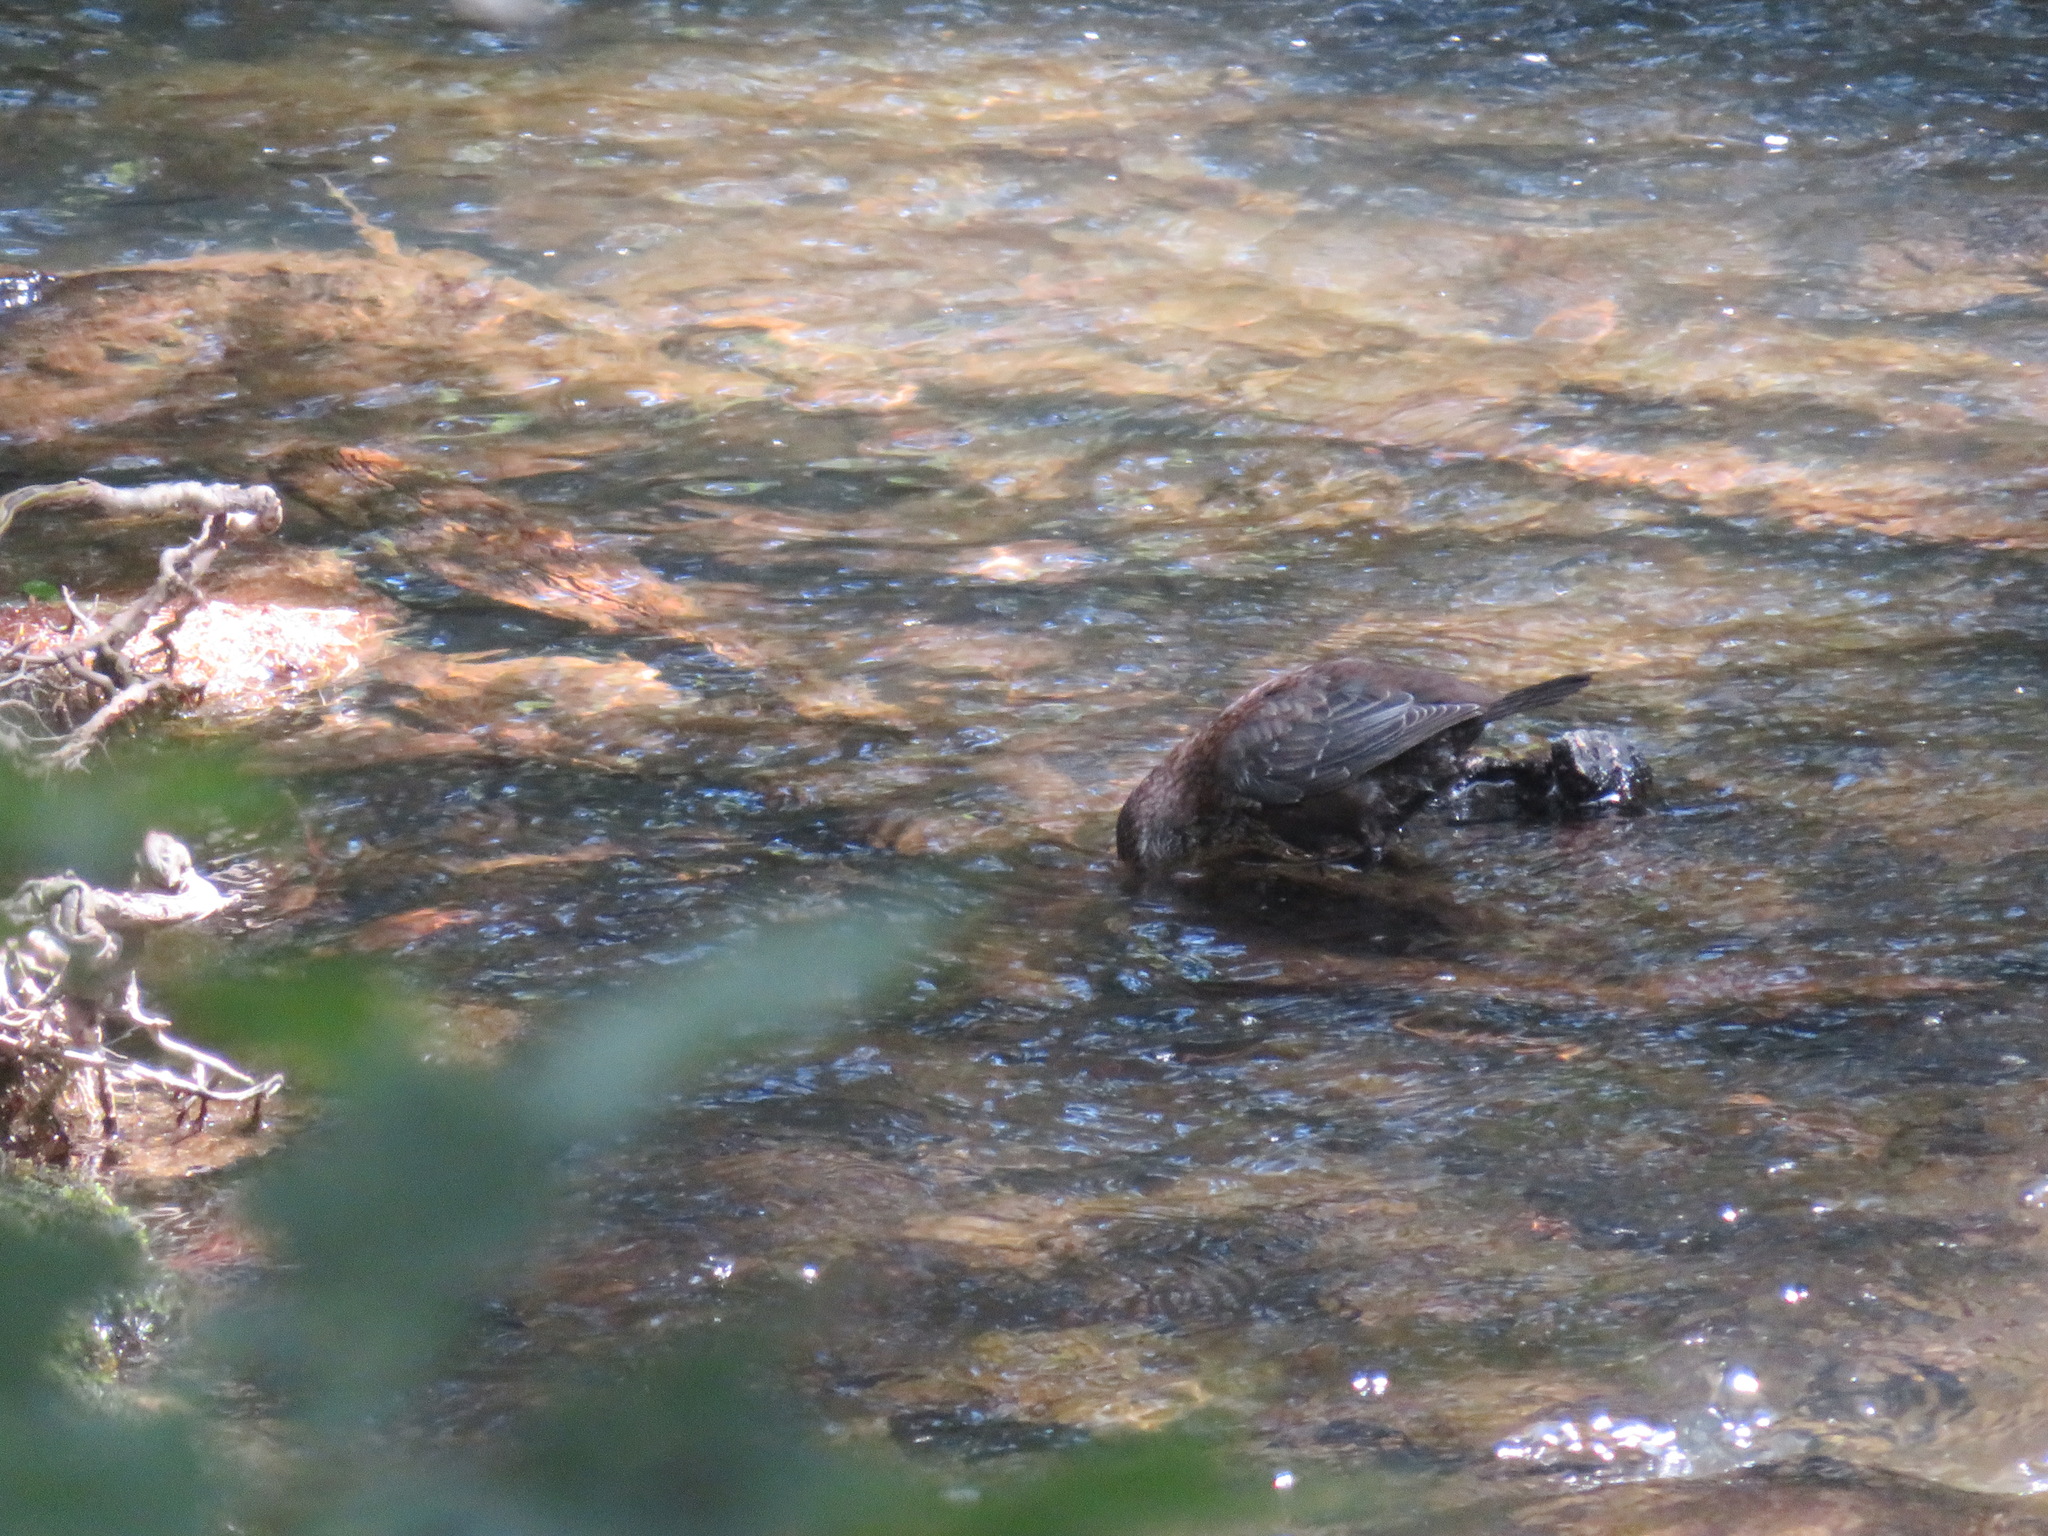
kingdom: Animalia
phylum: Chordata
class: Aves
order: Passeriformes
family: Cinclidae
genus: Cinclus
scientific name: Cinclus pallasii
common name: Brown dipper
